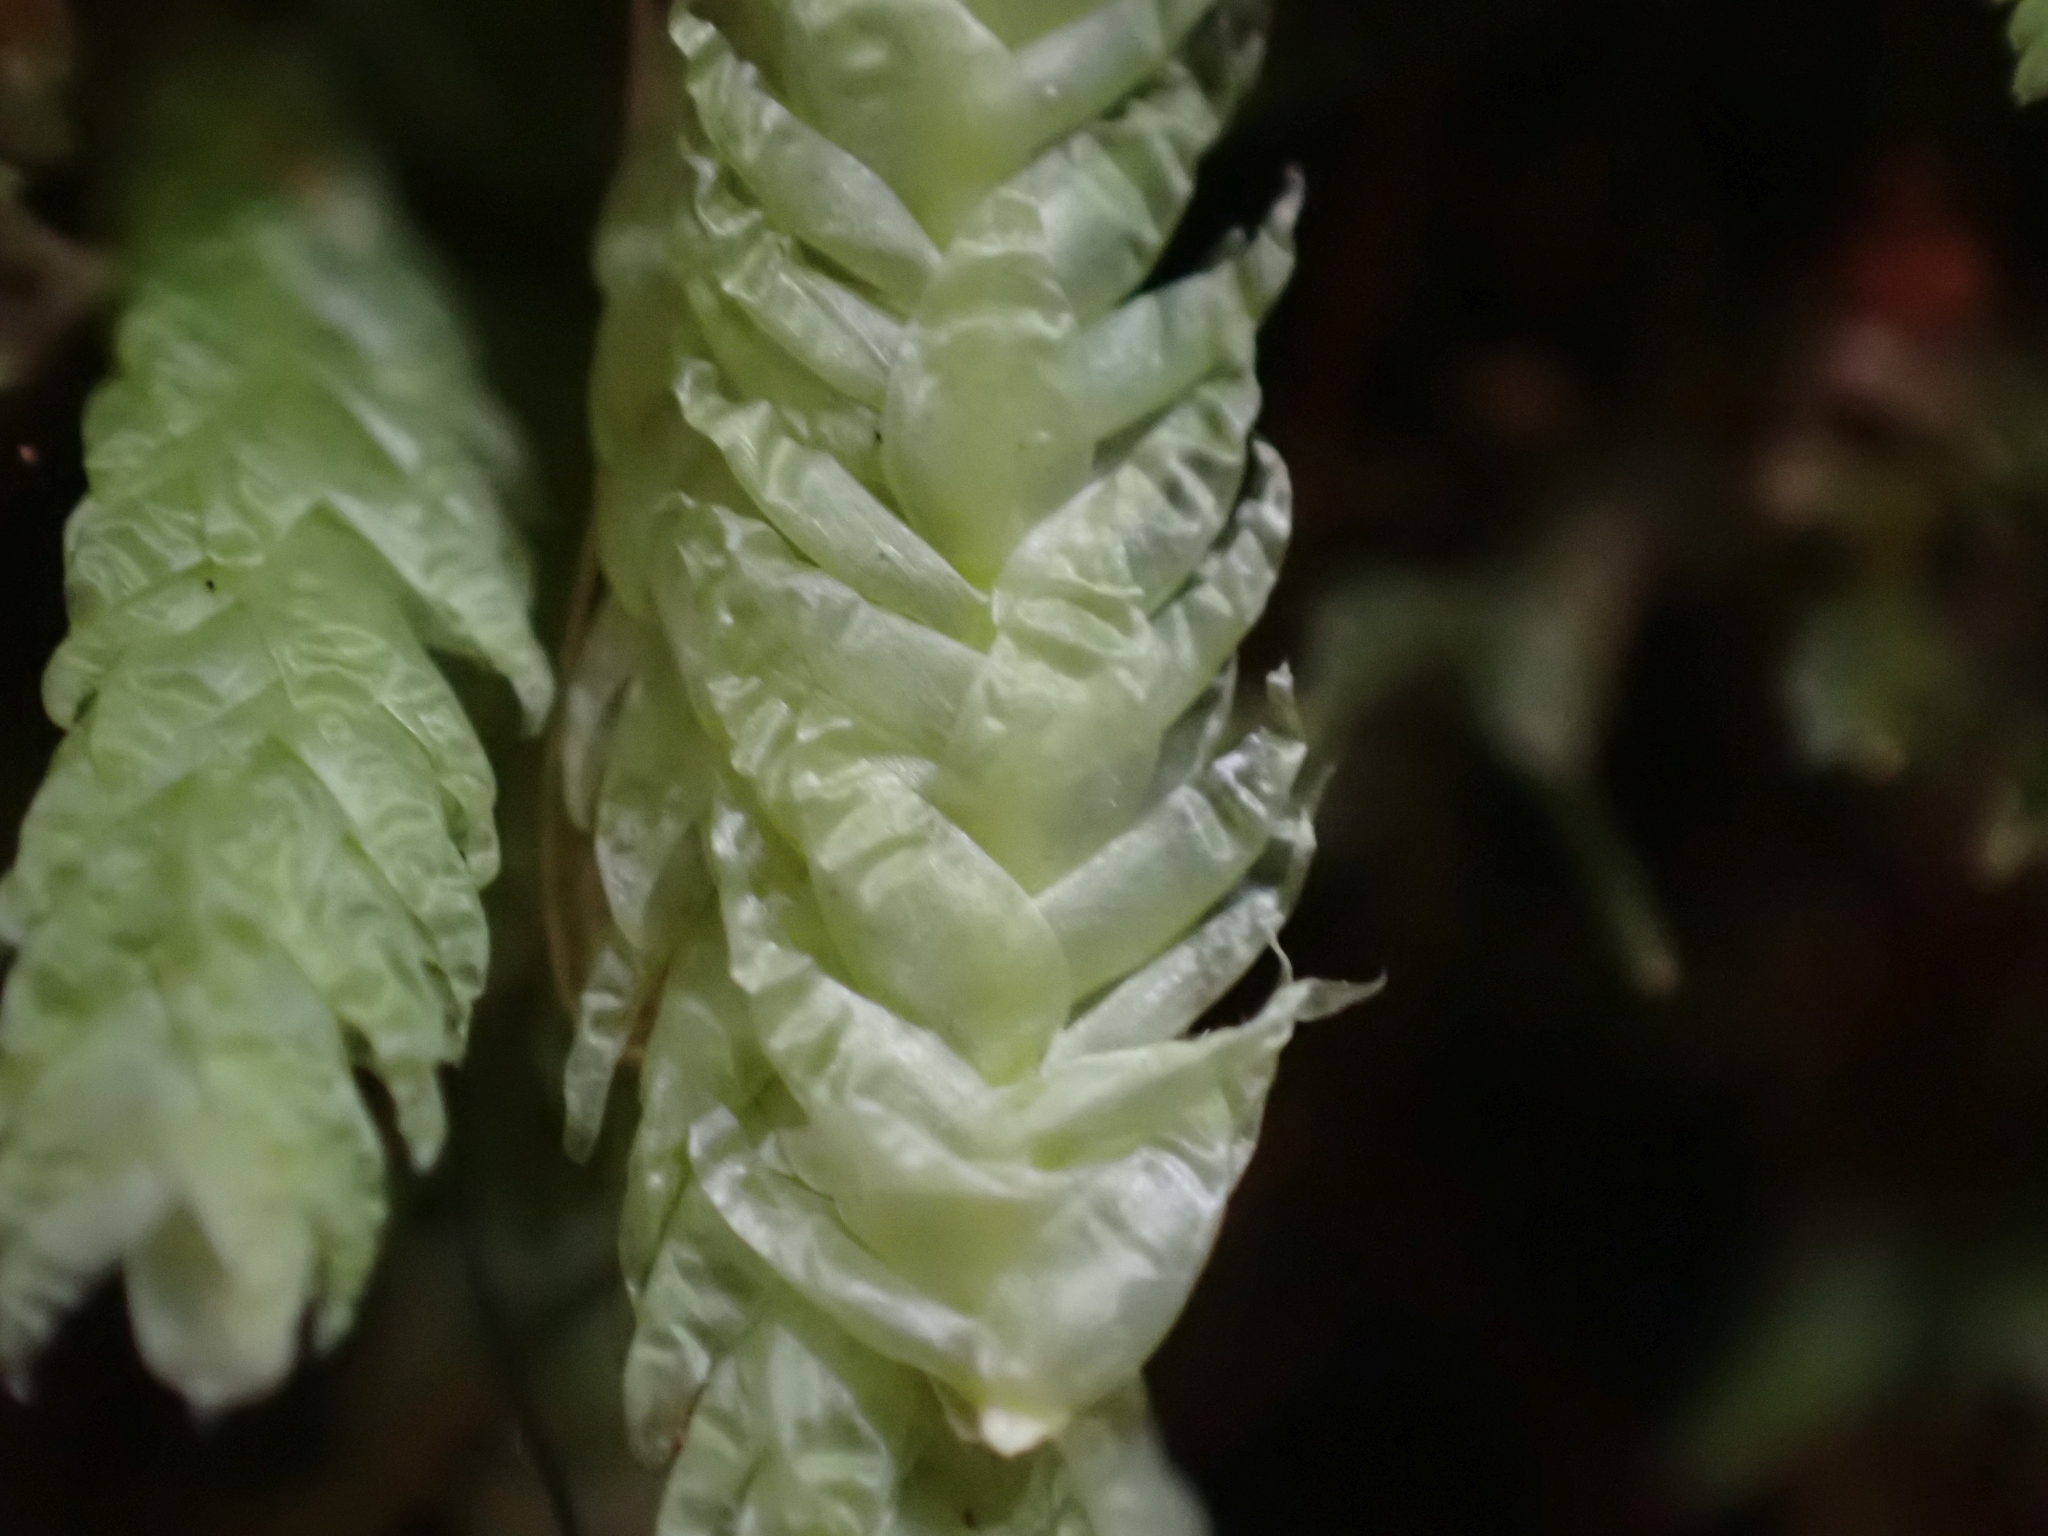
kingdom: Plantae
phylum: Bryophyta
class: Bryopsida
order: Hypnales
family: Plagiotheciaceae
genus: Plagiothecium
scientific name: Plagiothecium undulatum
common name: Waved silk-moss
